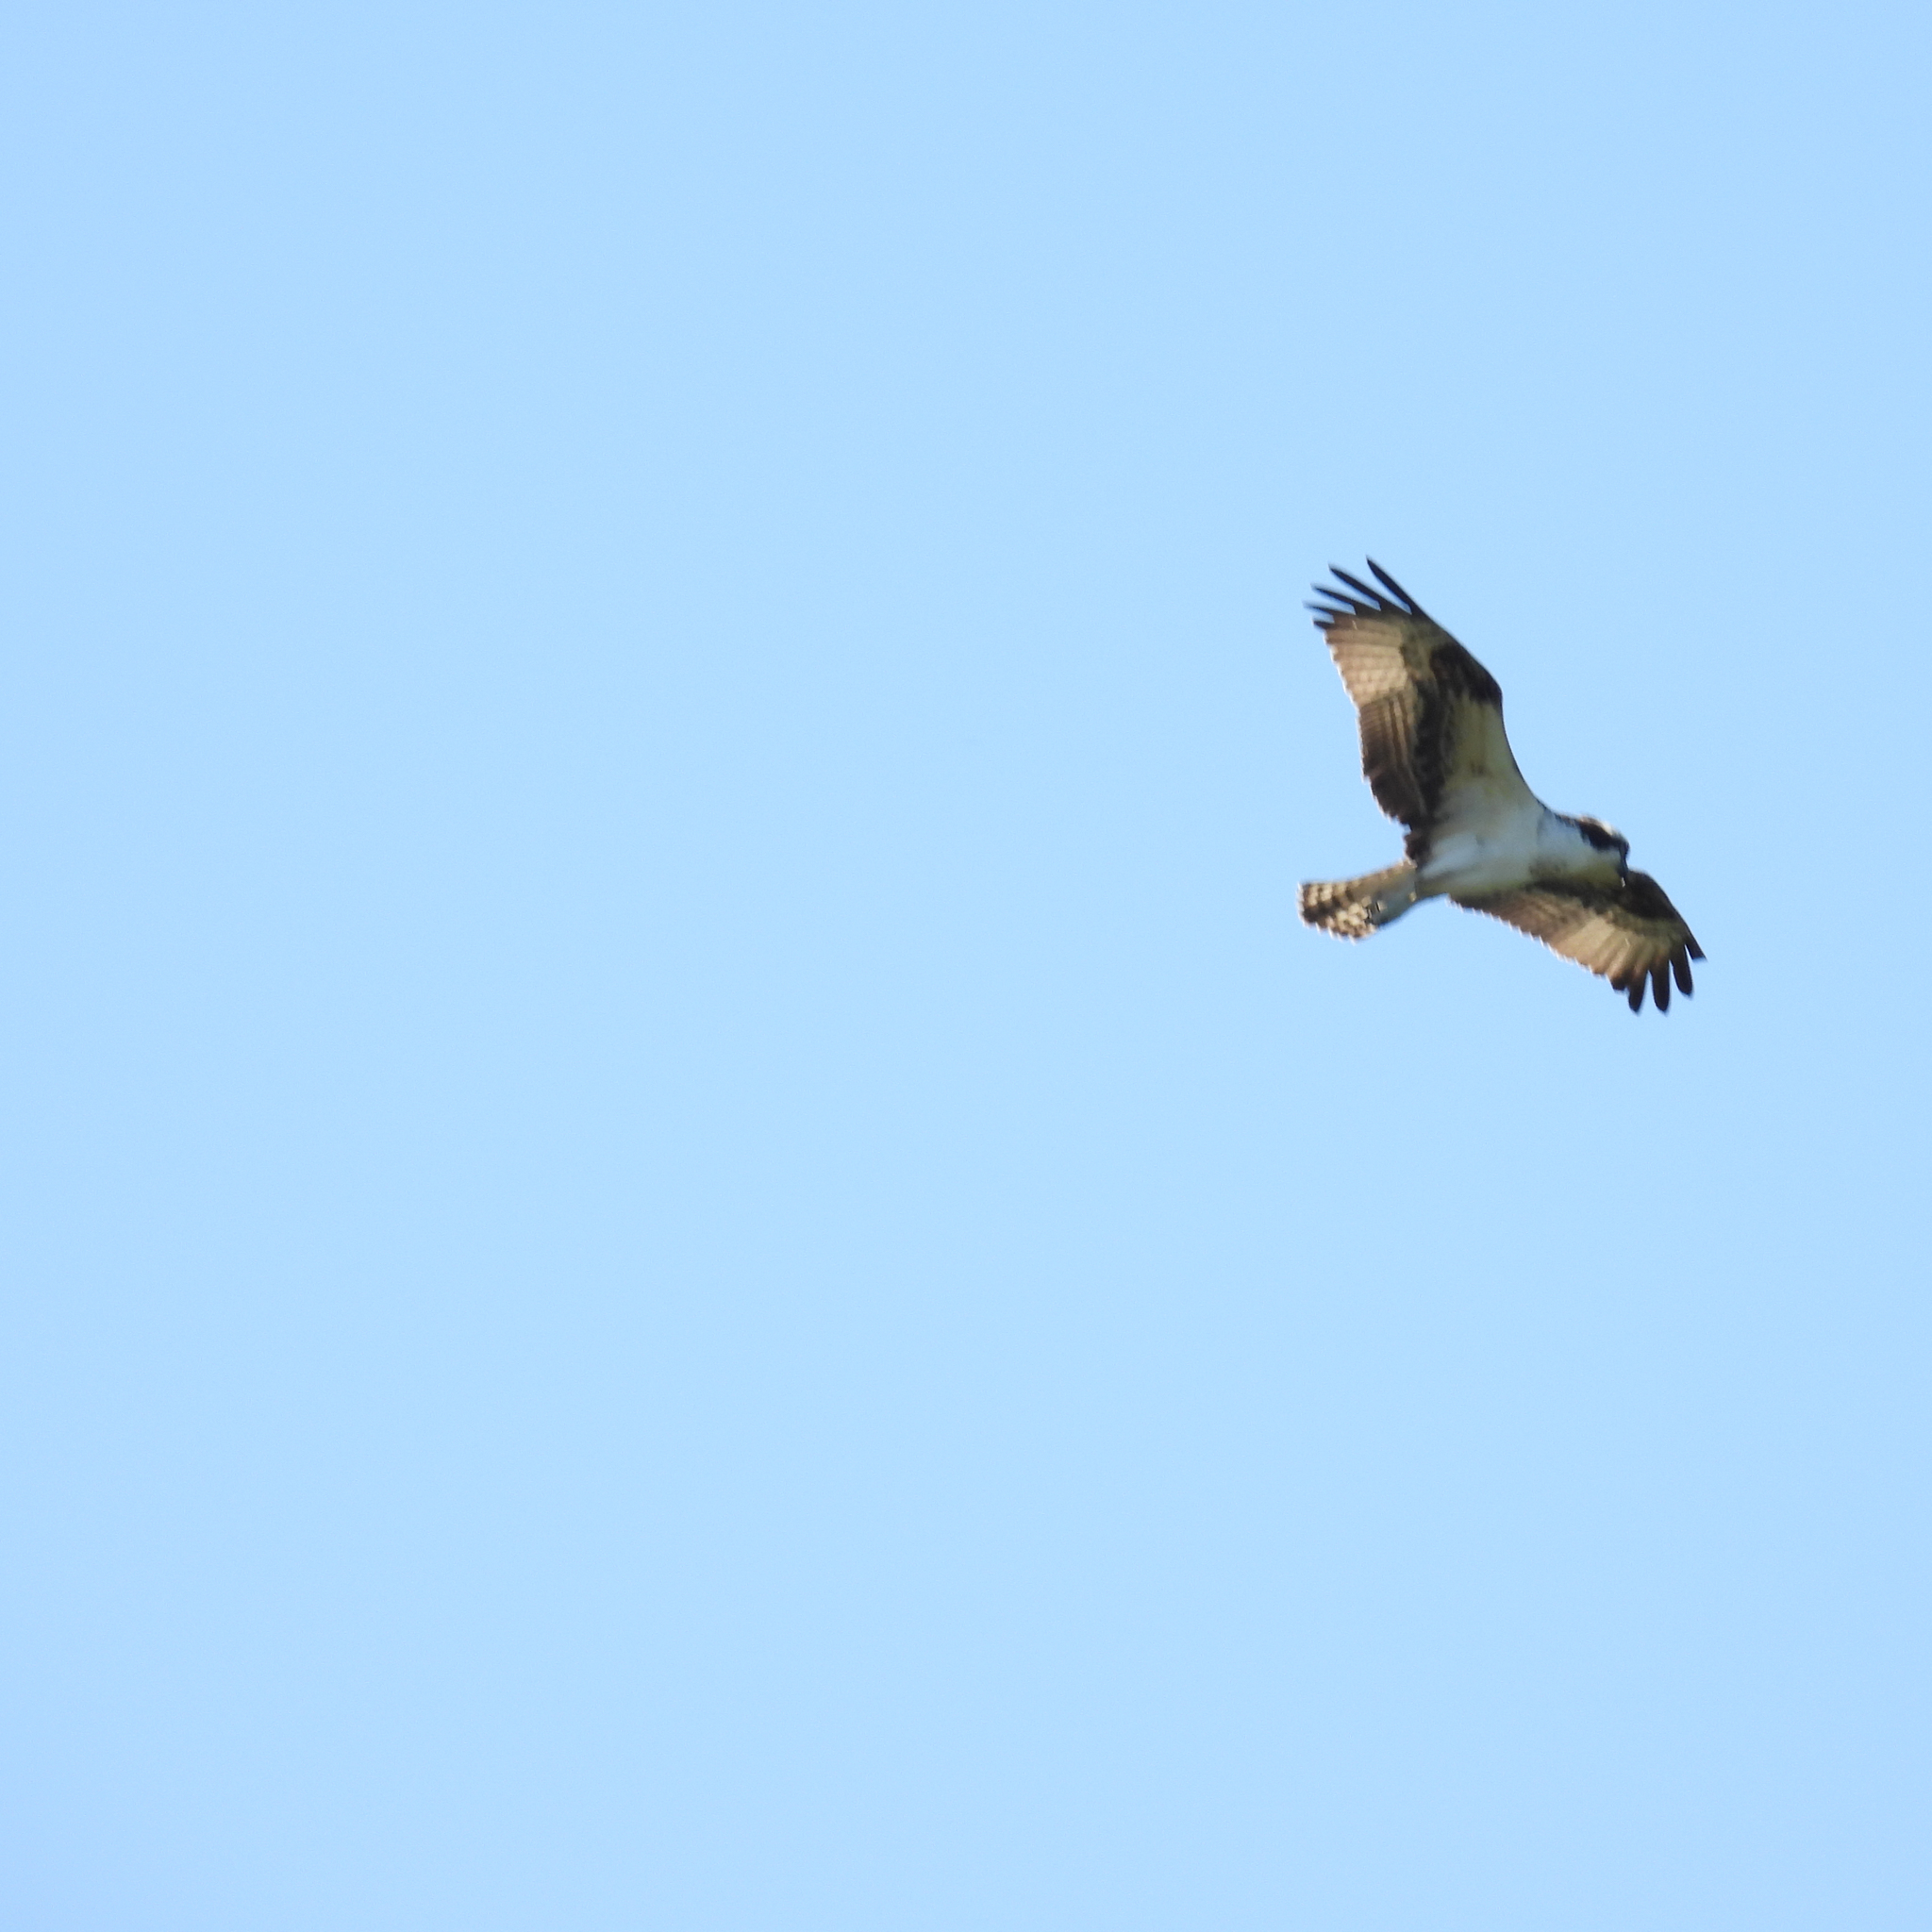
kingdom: Animalia
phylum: Chordata
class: Aves
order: Accipitriformes
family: Pandionidae
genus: Pandion
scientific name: Pandion haliaetus
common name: Osprey
